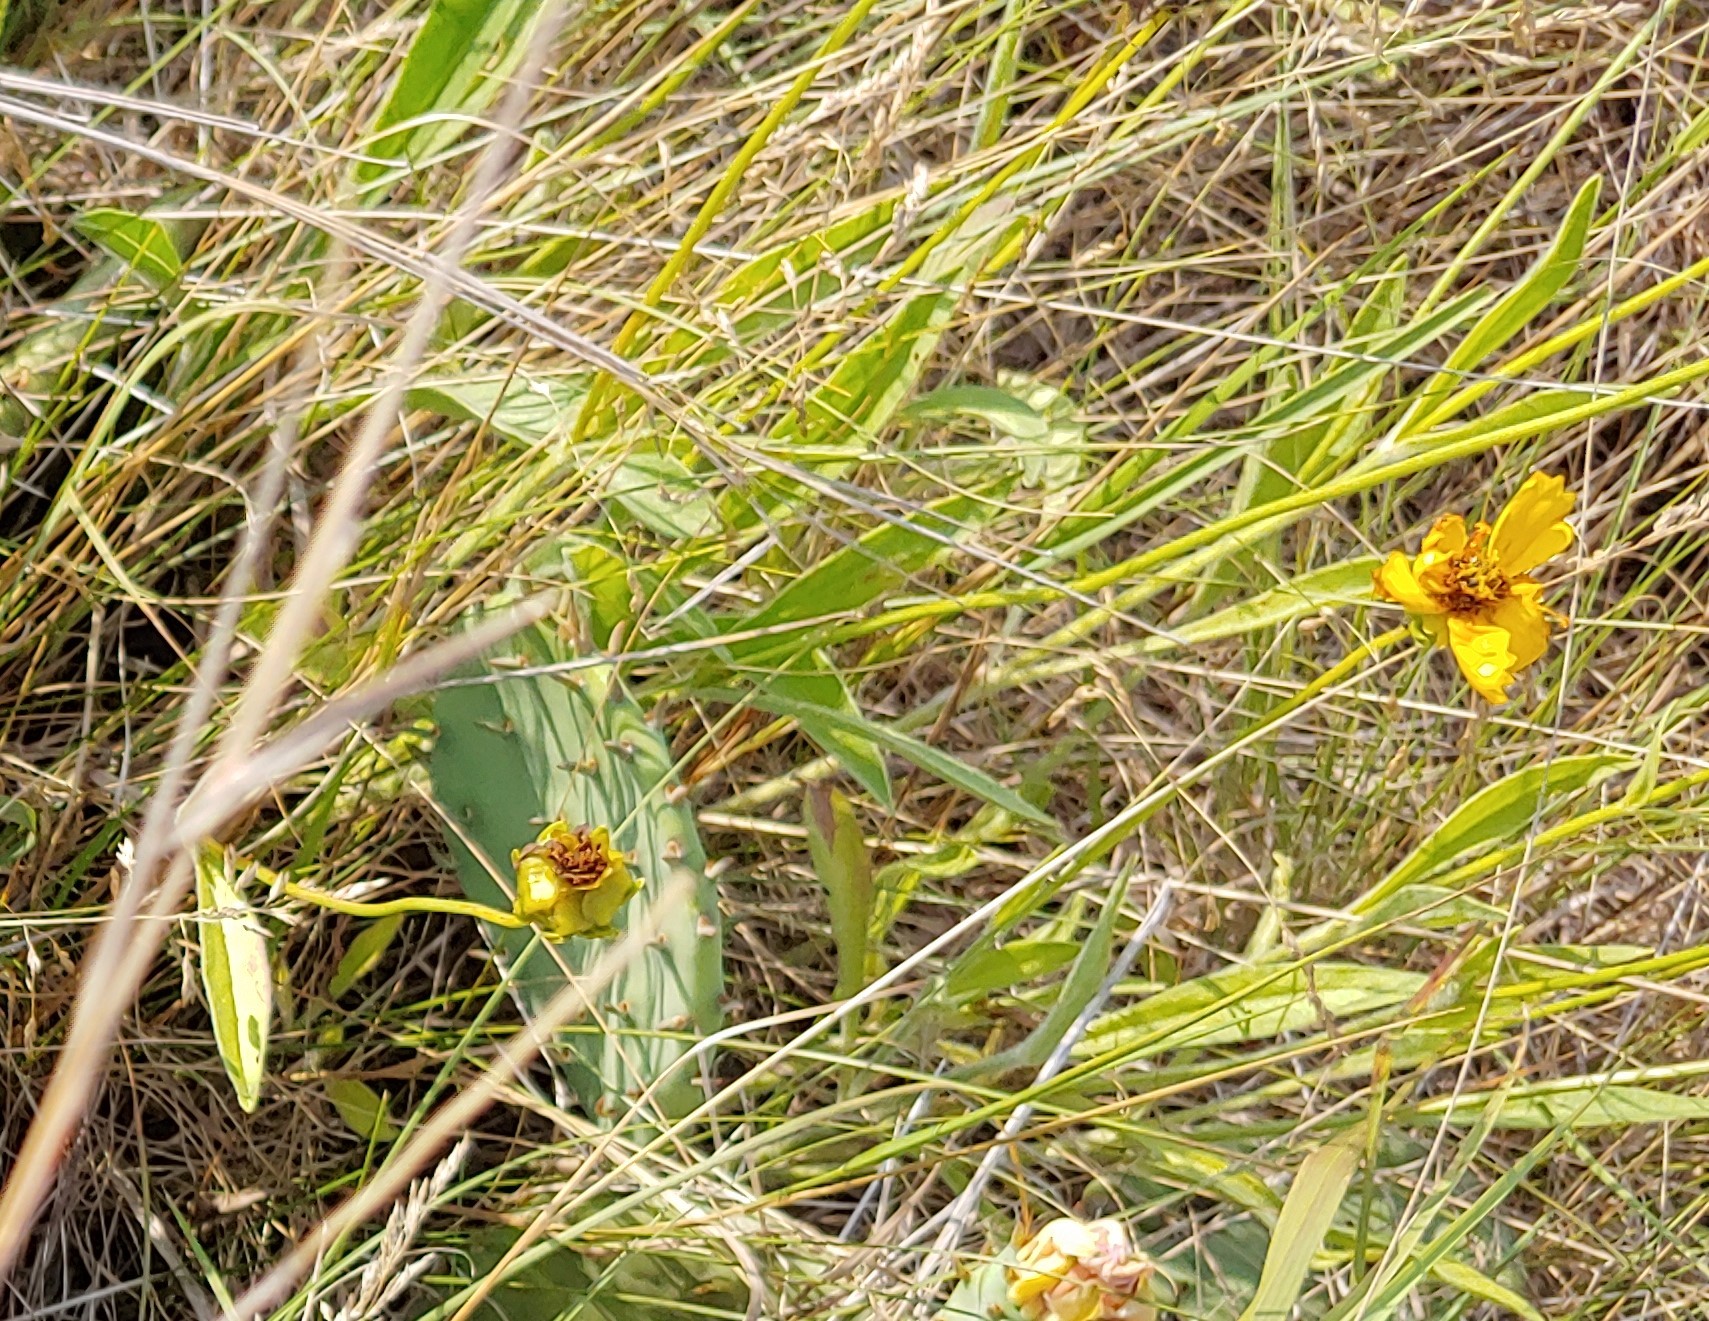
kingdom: Plantae
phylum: Tracheophyta
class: Magnoliopsida
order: Asterales
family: Asteraceae
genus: Coreopsis
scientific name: Coreopsis lanceolata
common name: Garden coreopsis
